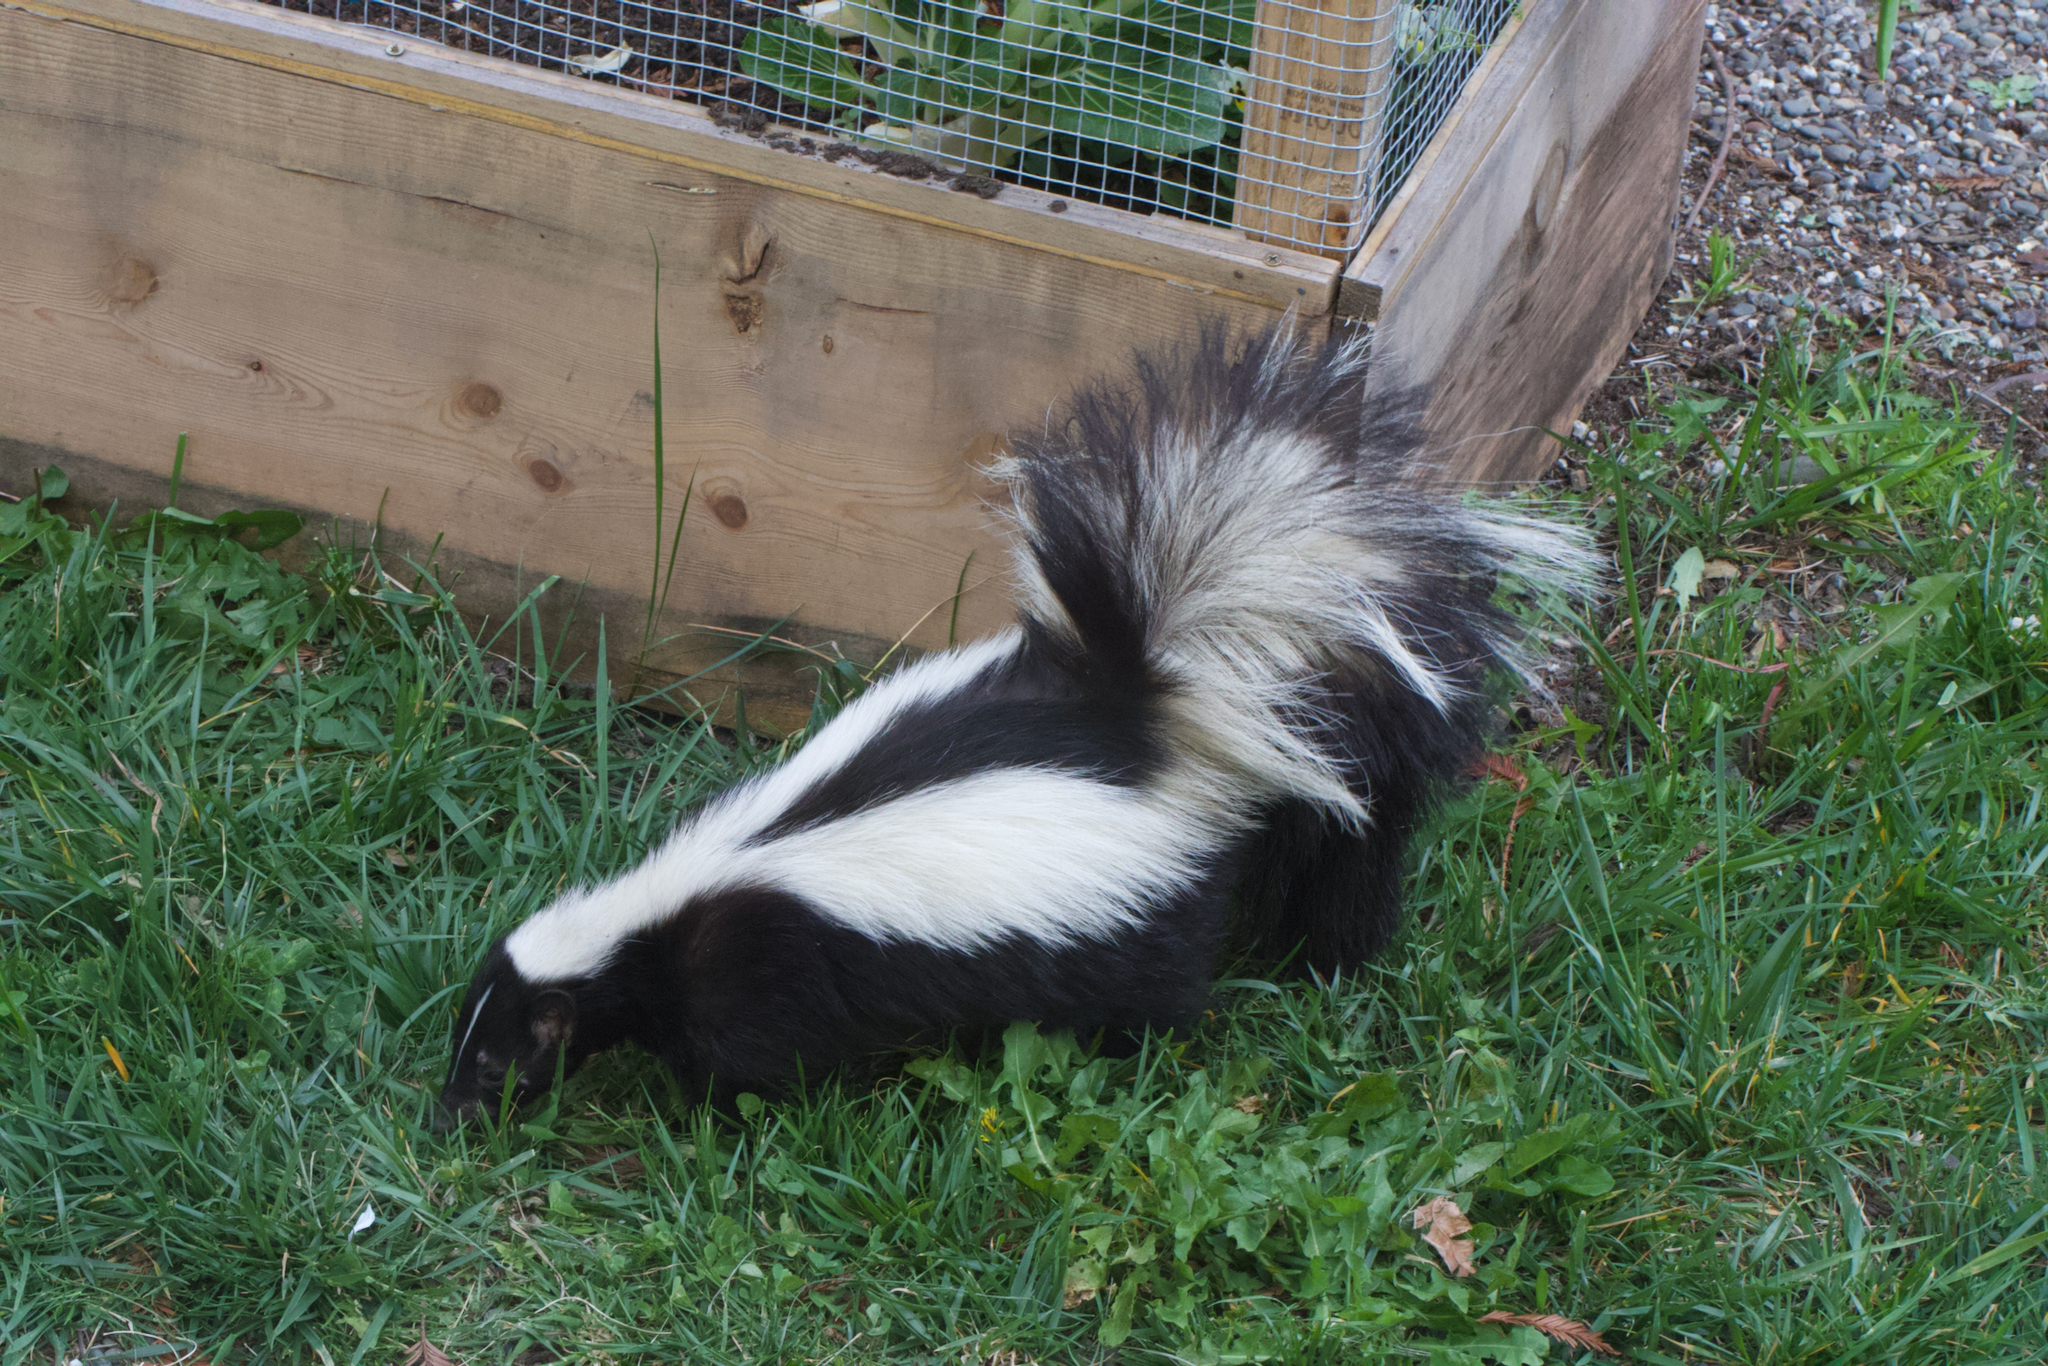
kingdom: Animalia
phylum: Chordata
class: Mammalia
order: Carnivora
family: Mephitidae
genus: Mephitis
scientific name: Mephitis mephitis
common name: Striped skunk
